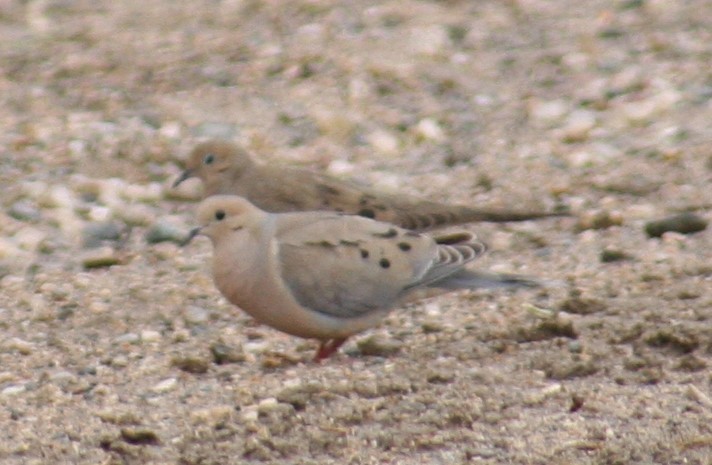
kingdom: Animalia
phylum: Chordata
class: Aves
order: Columbiformes
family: Columbidae
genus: Zenaida
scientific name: Zenaida macroura
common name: Mourning dove
